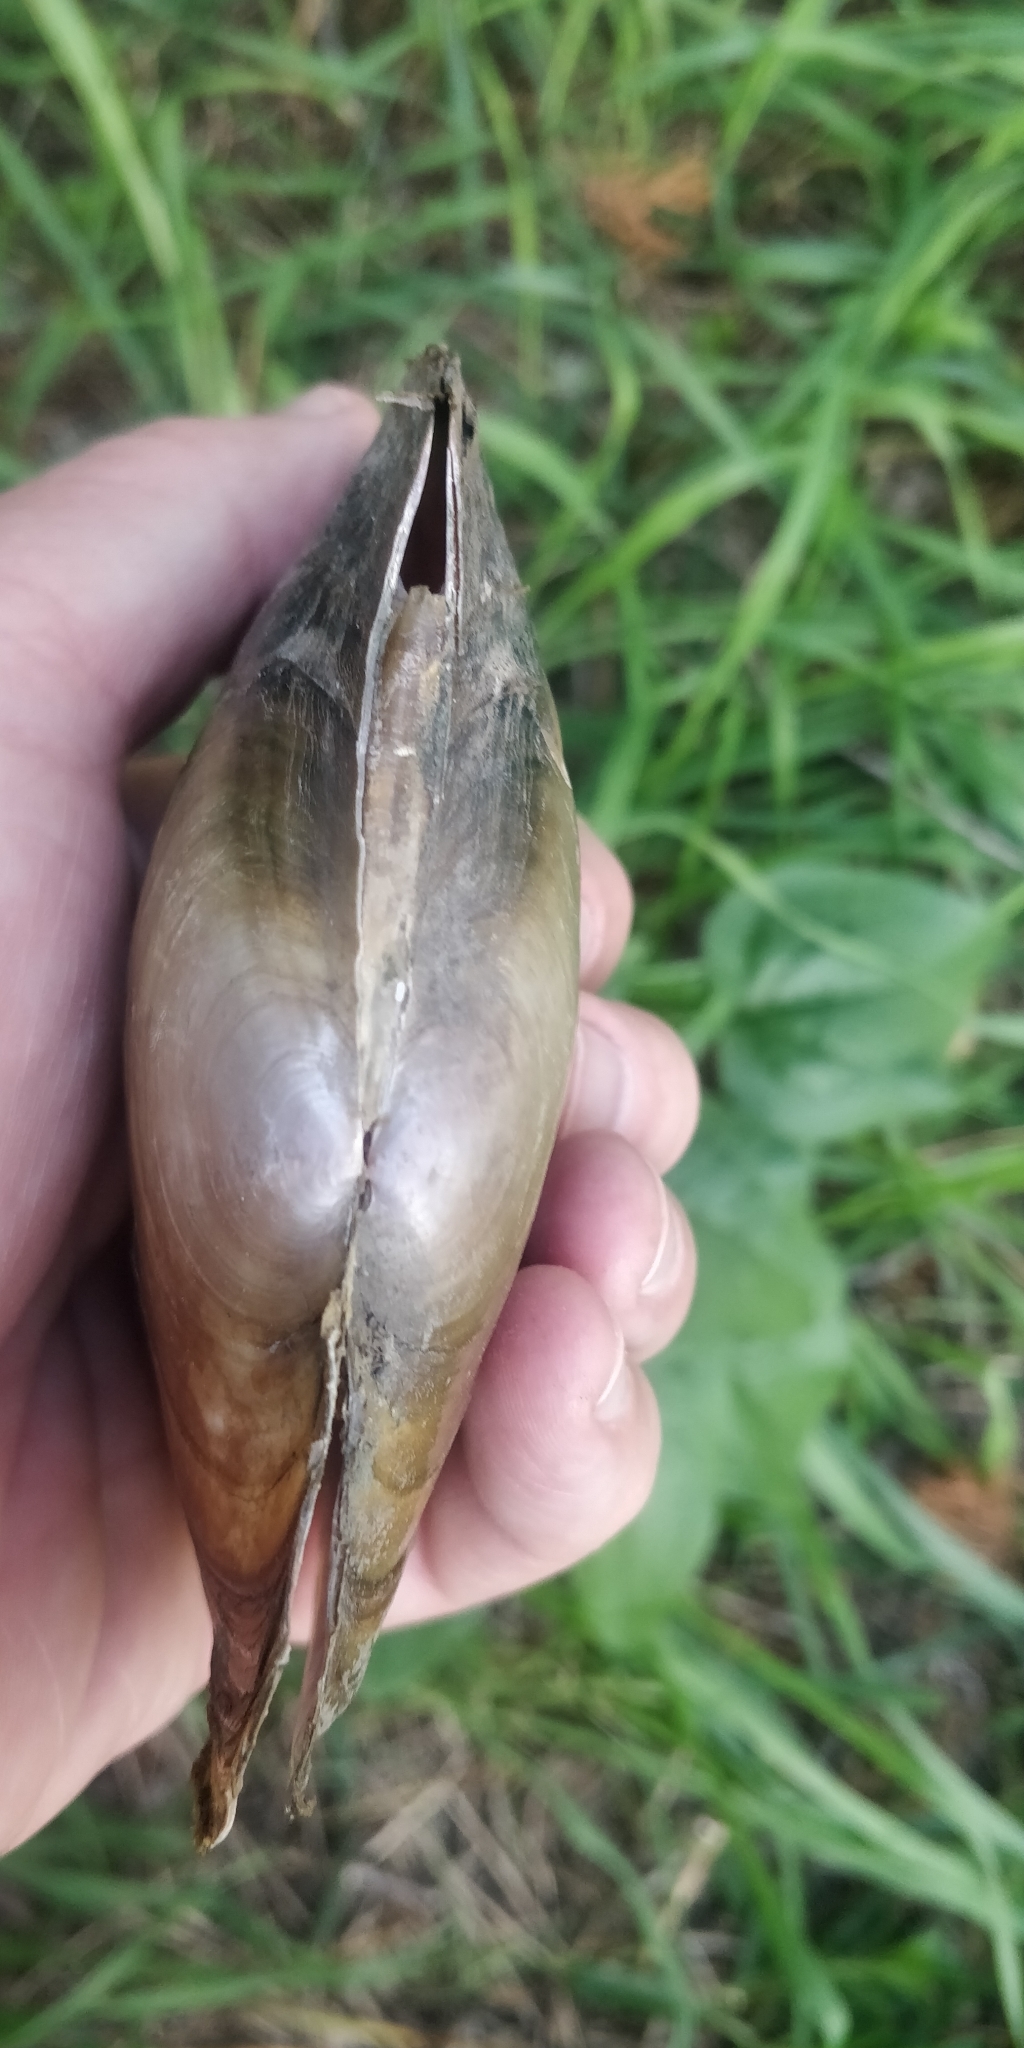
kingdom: Animalia
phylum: Mollusca
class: Bivalvia
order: Unionida
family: Unionidae
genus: Potamilus
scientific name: Potamilus ohiensis
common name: Pink papershell
